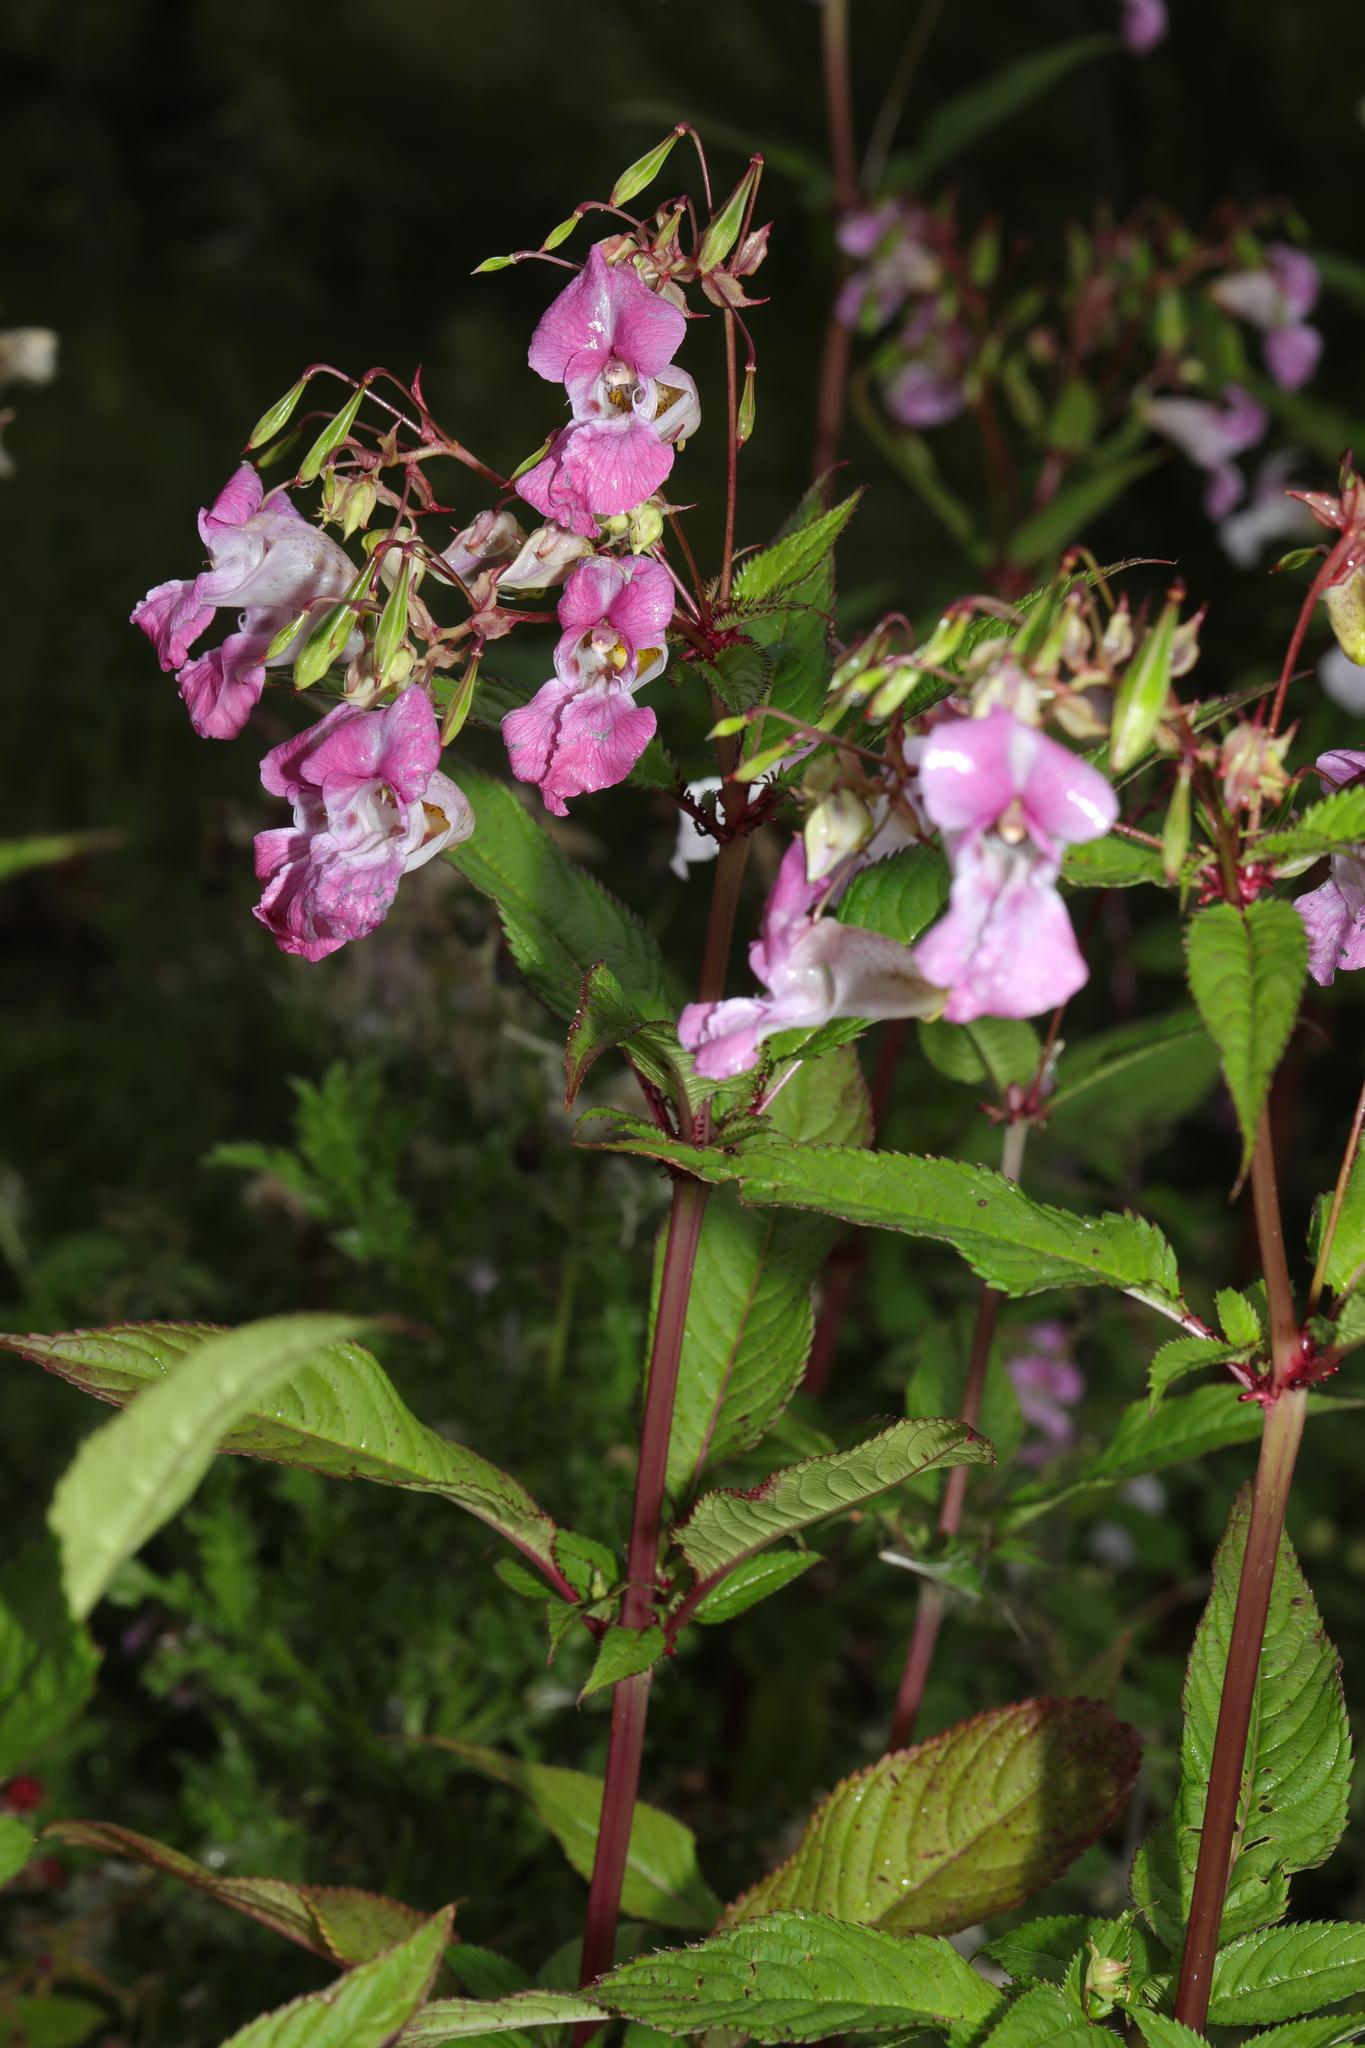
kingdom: Plantae
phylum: Tracheophyta
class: Magnoliopsida
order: Ericales
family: Balsaminaceae
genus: Impatiens
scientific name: Impatiens glandulifera
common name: Himalayan balsam
